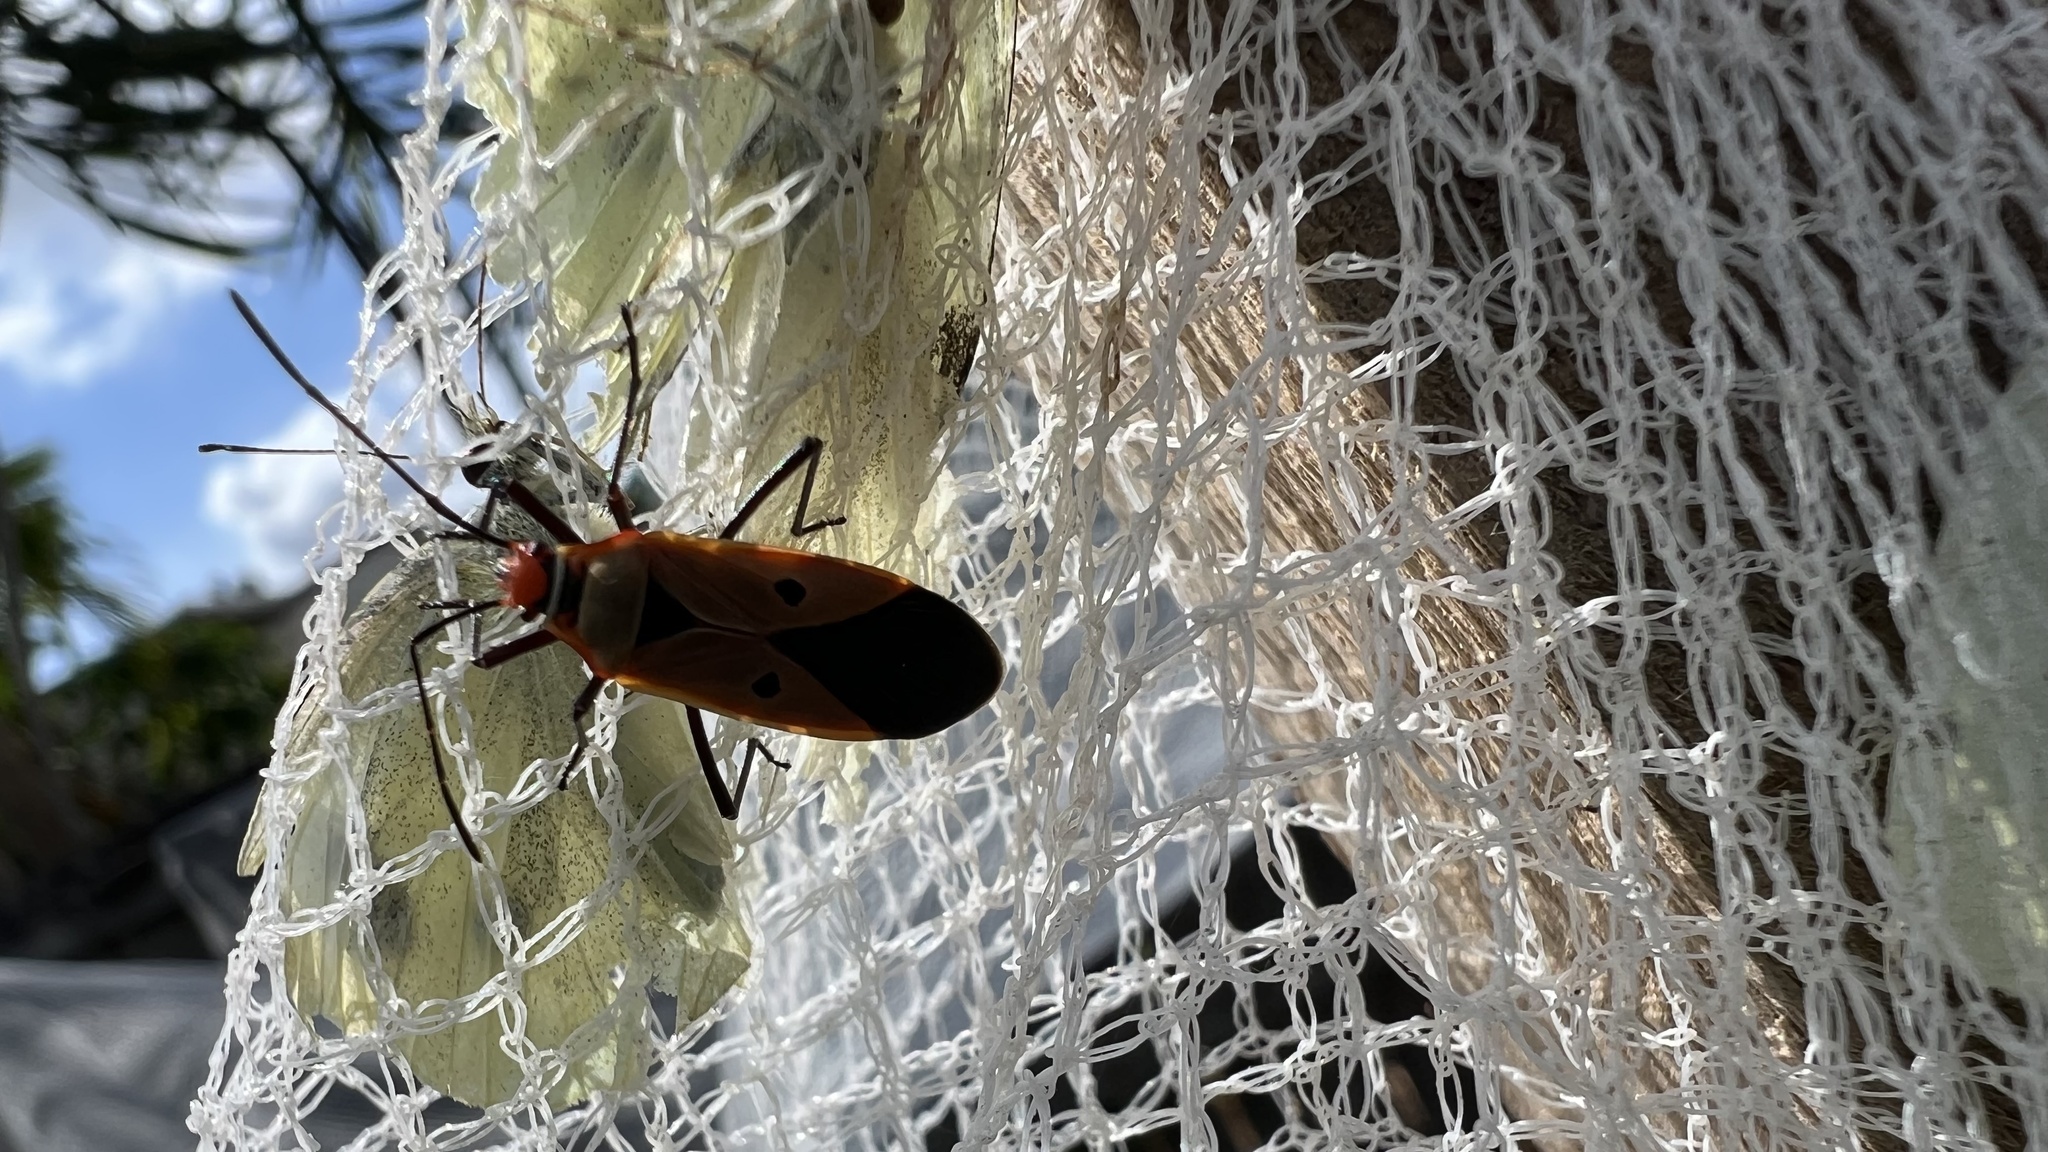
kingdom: Animalia
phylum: Arthropoda
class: Insecta
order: Hemiptera
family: Pyrrhocoridae
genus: Dysdercus
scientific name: Dysdercus sidae
